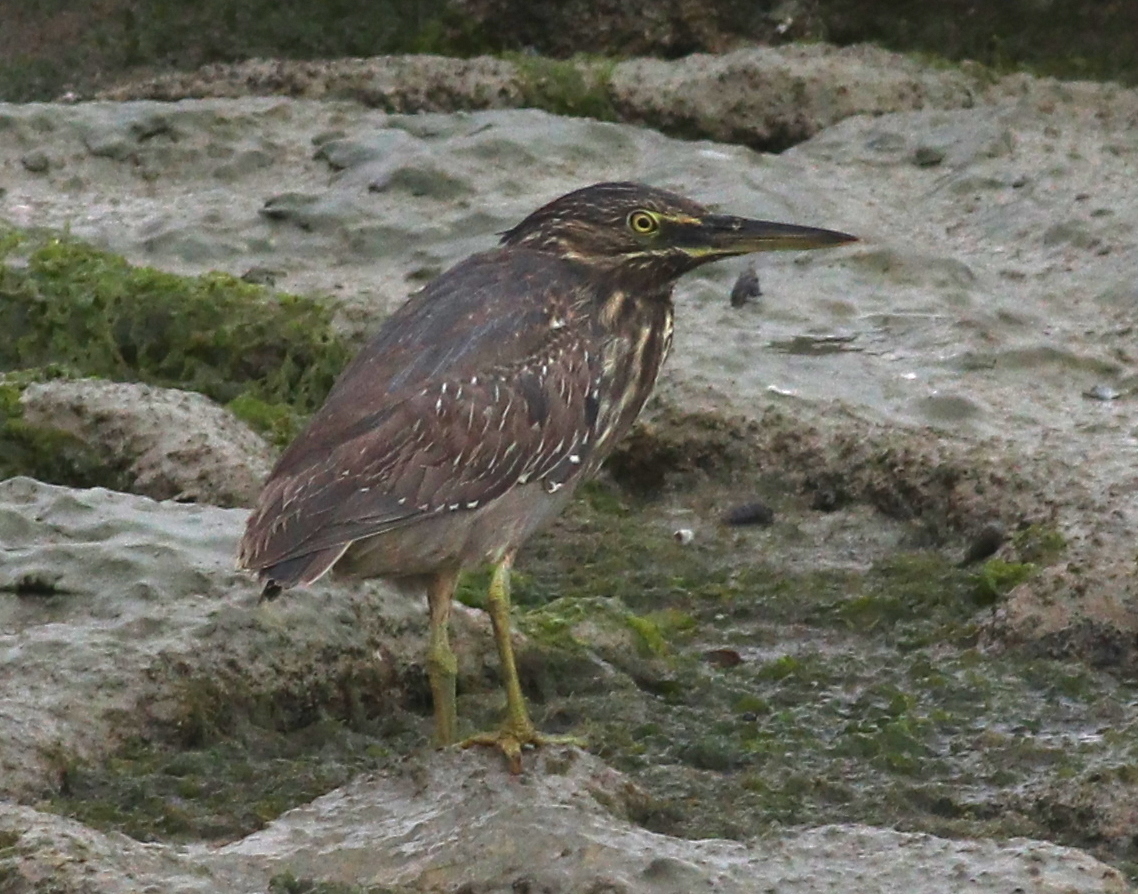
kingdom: Animalia
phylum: Chordata
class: Aves
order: Pelecaniformes
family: Ardeidae
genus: Butorides
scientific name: Butorides striata
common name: Striated heron
